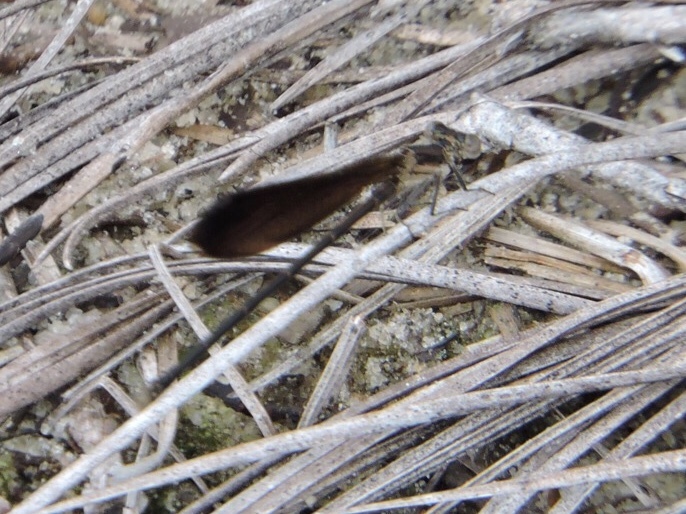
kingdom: Animalia
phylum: Arthropoda
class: Insecta
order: Odonata
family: Coenagrionidae
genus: Argia
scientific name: Argia fumipennis
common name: Variable dancer
